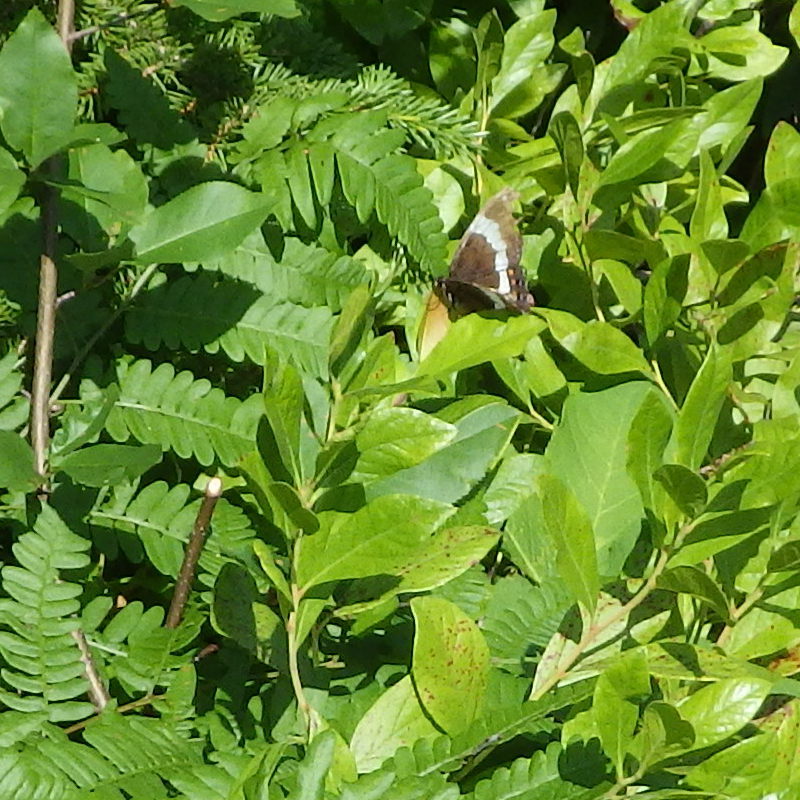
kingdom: Animalia
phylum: Arthropoda
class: Insecta
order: Lepidoptera
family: Nymphalidae
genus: Limenitis
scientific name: Limenitis arthemis
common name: Red-spotted admiral
